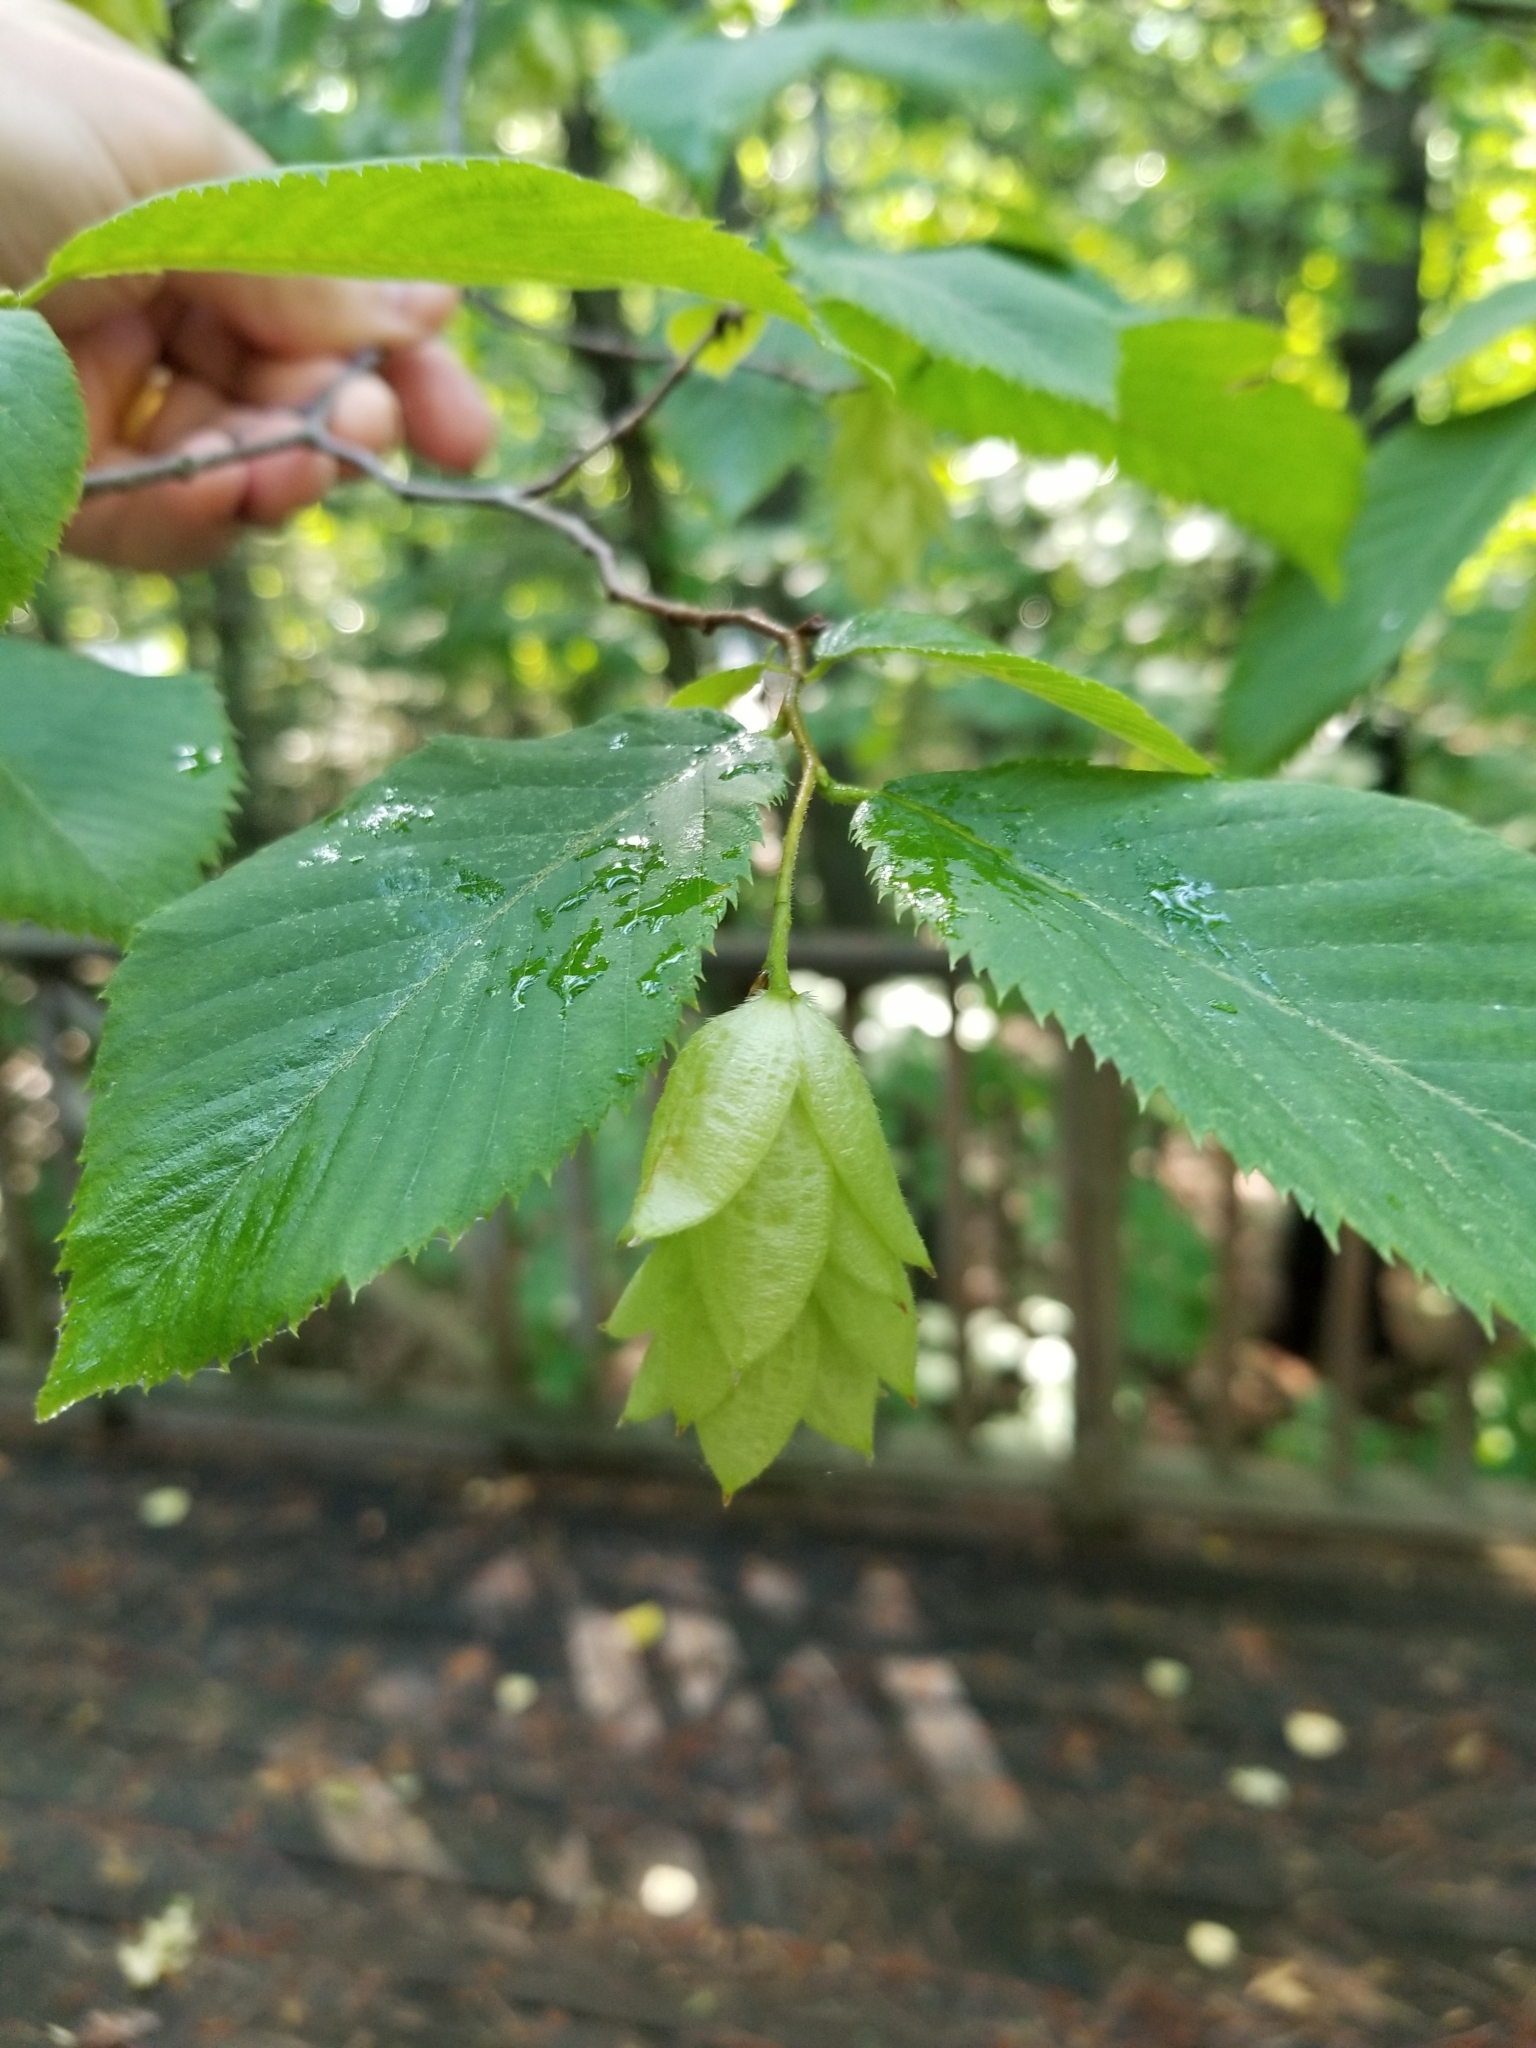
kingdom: Plantae
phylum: Tracheophyta
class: Magnoliopsida
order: Fagales
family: Betulaceae
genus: Ostrya
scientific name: Ostrya virginiana
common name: Ironwood
